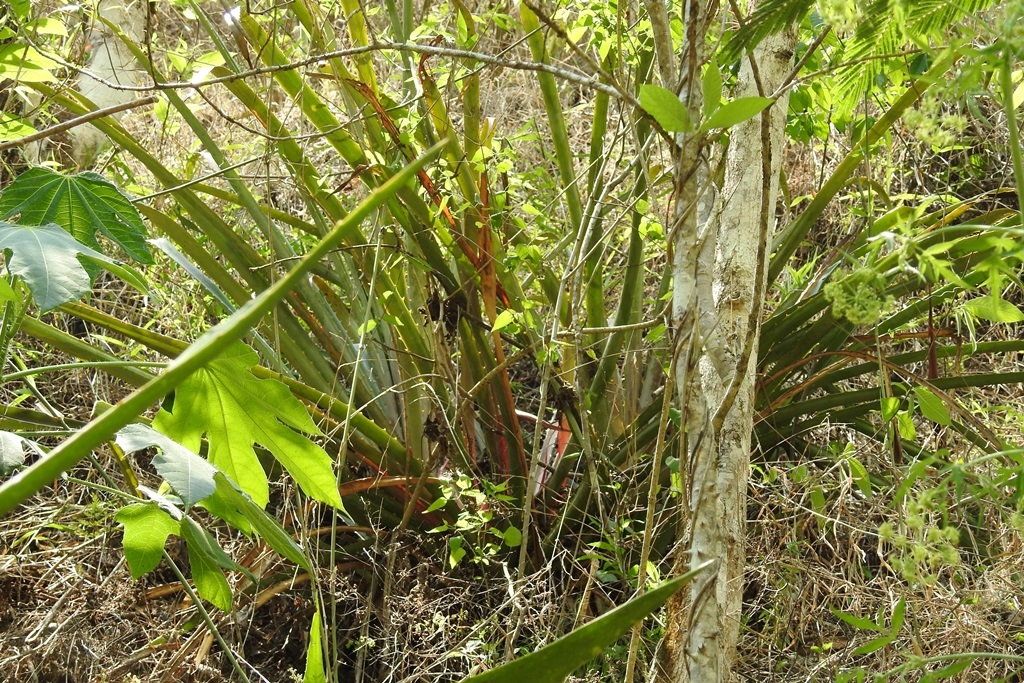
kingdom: Plantae
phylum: Tracheophyta
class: Liliopsida
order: Poales
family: Bromeliaceae
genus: Bromelia
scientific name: Bromelia pinguin
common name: Pinguin
